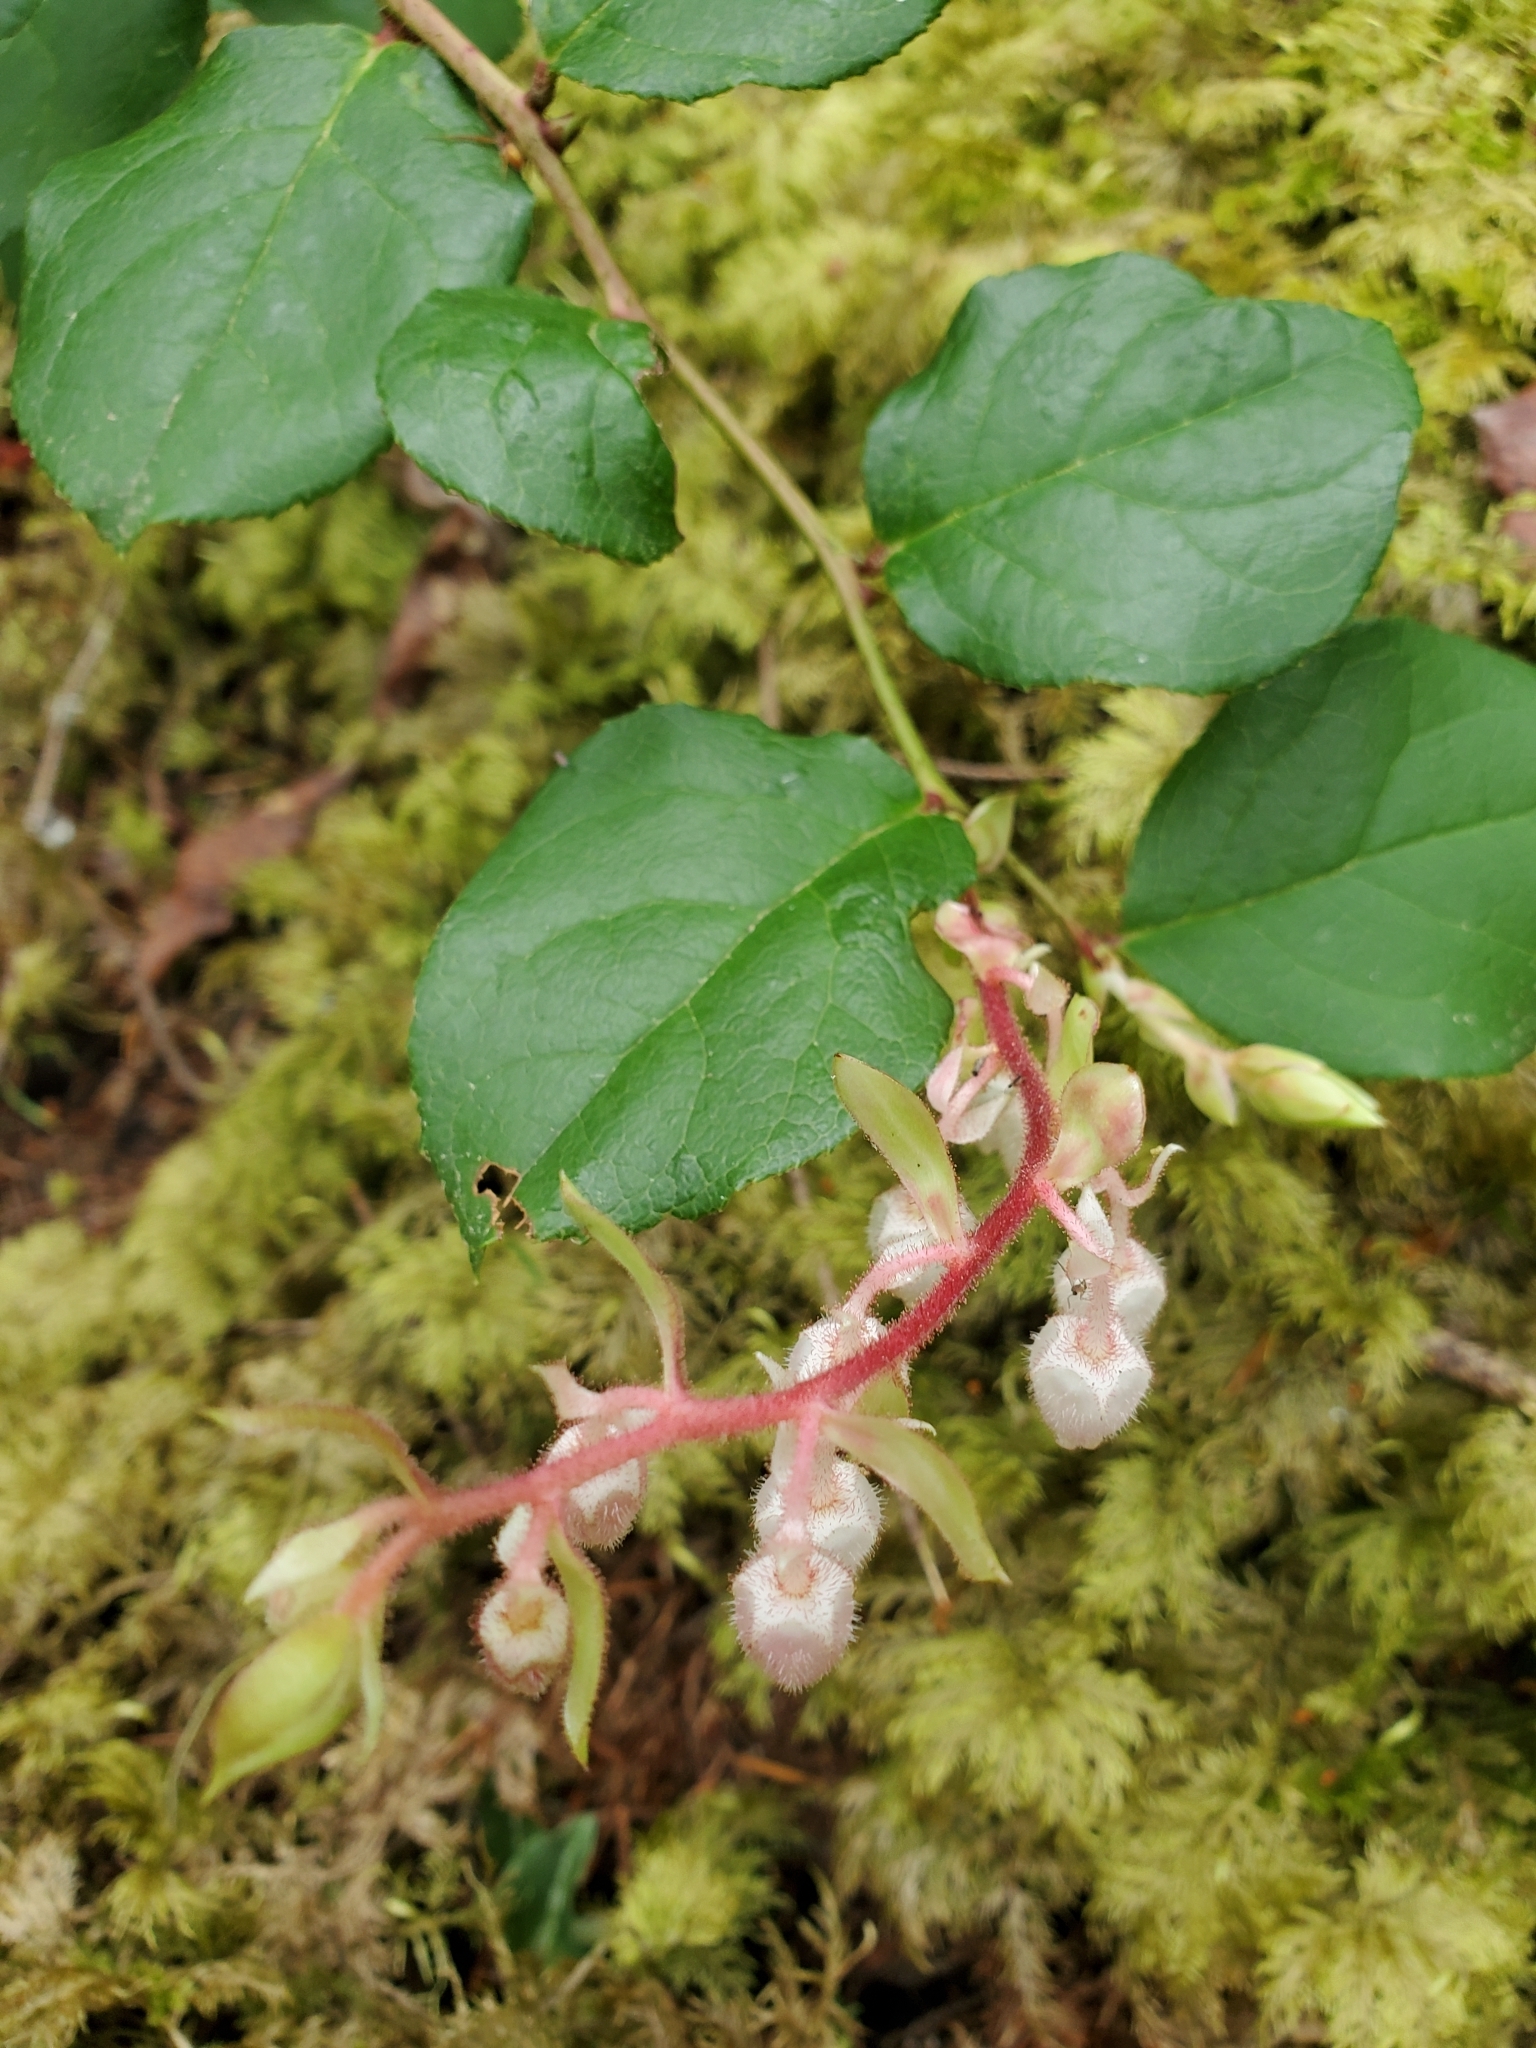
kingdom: Plantae
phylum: Tracheophyta
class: Magnoliopsida
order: Ericales
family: Ericaceae
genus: Gaultheria
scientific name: Gaultheria shallon
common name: Shallon
